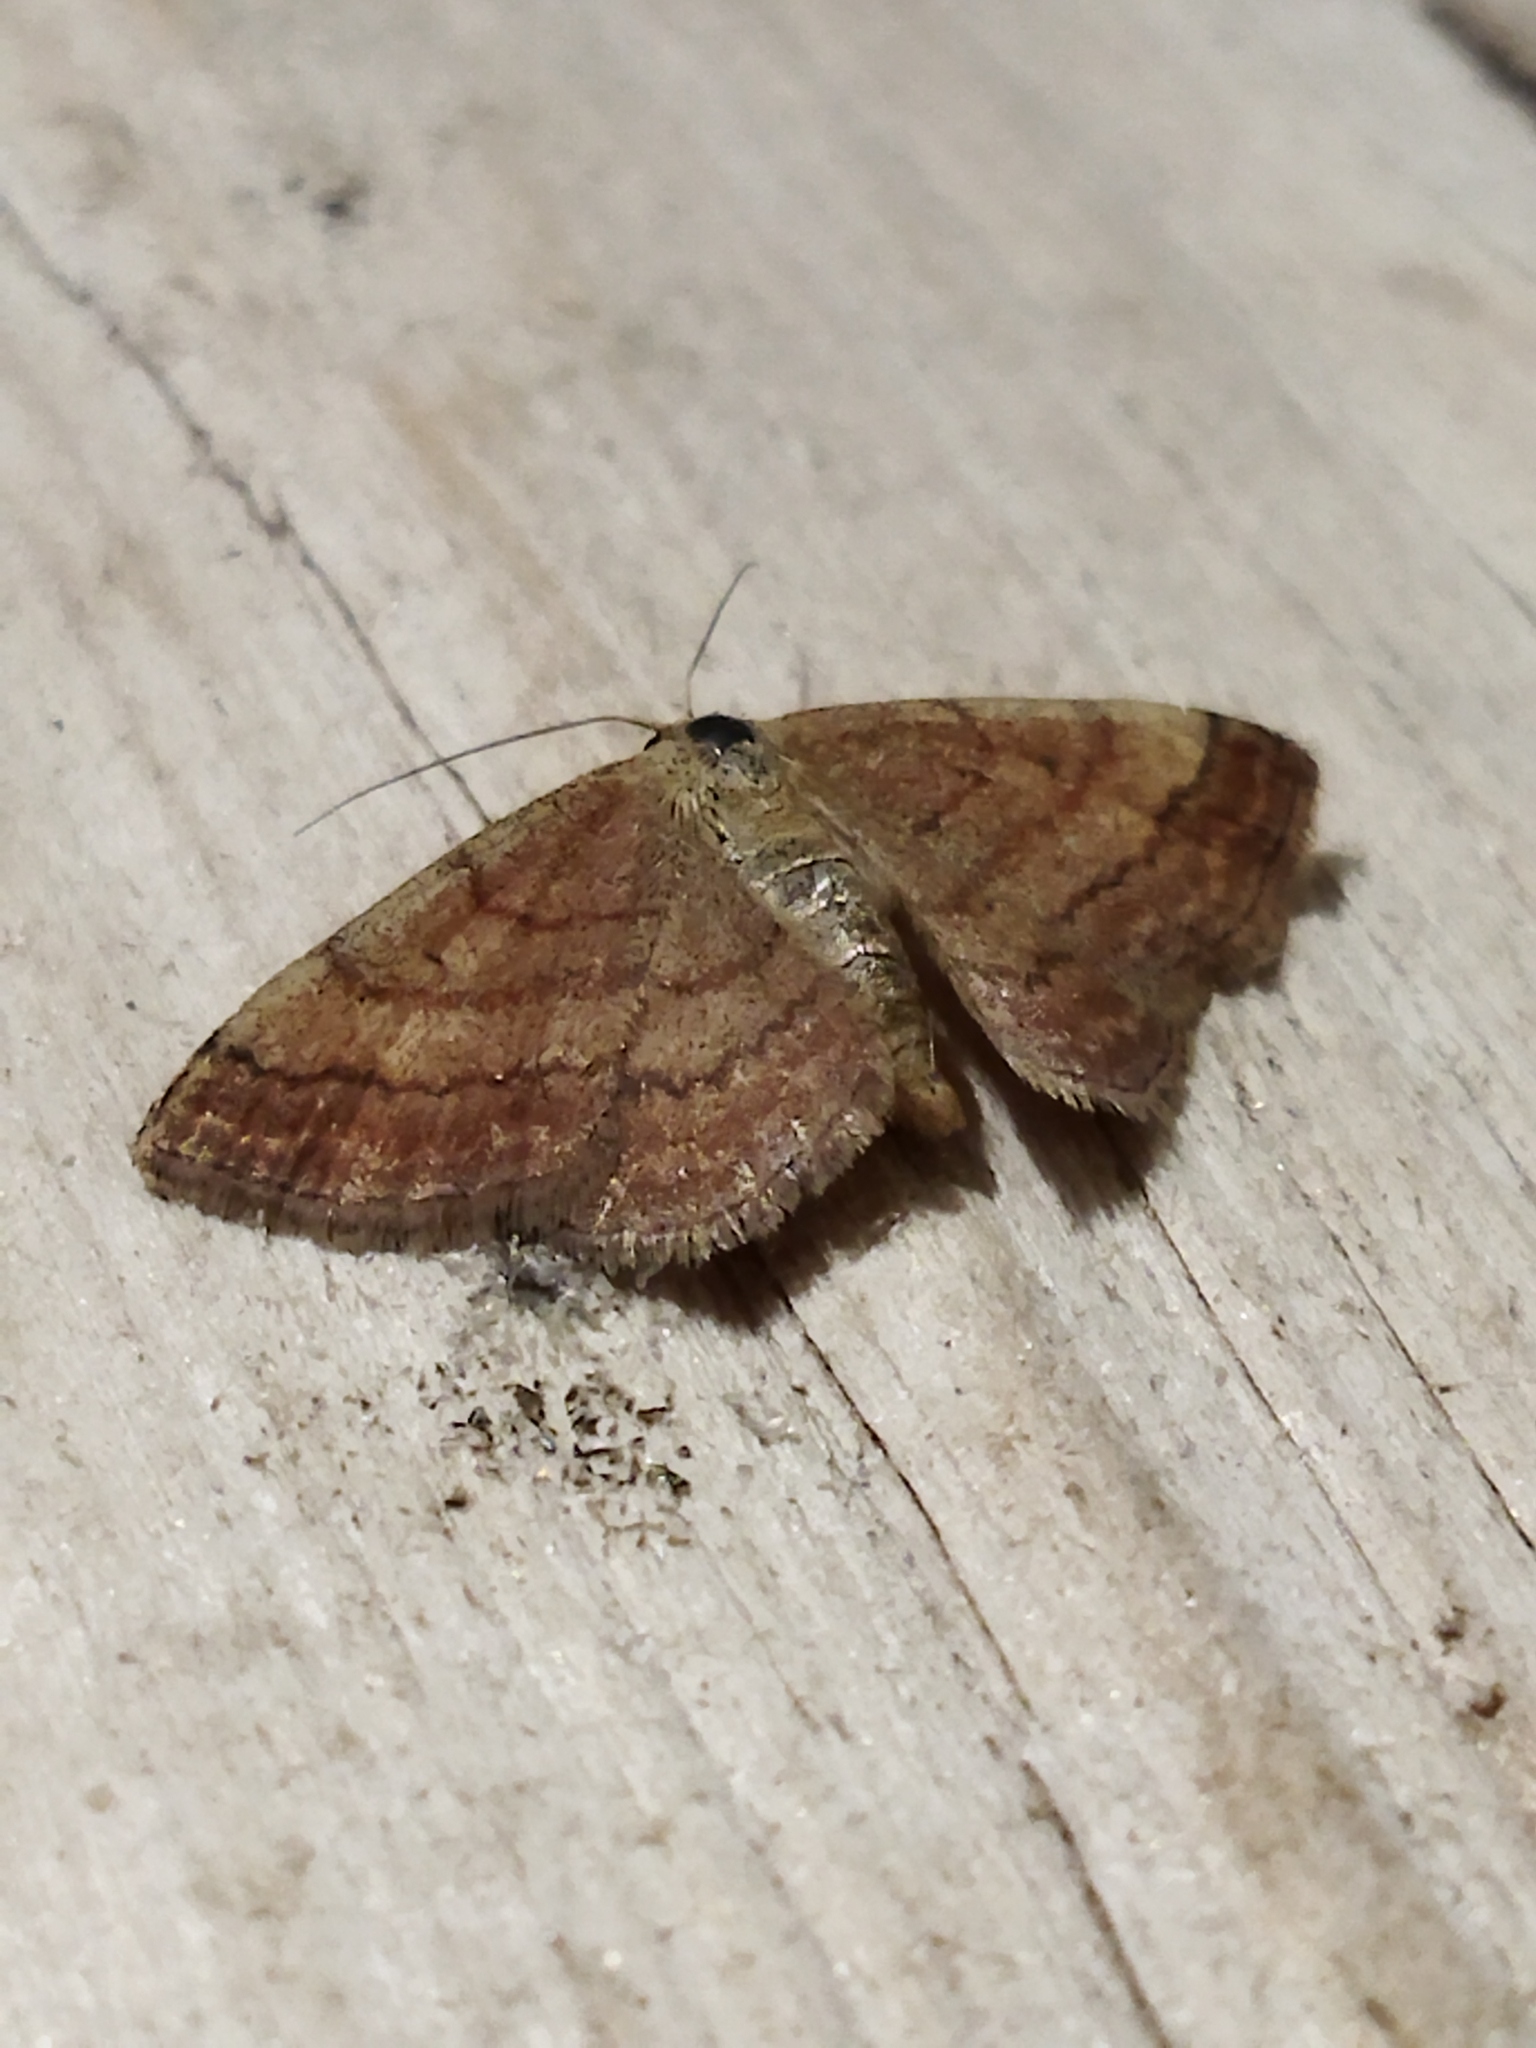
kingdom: Animalia
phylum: Arthropoda
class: Insecta
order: Lepidoptera
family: Geometridae
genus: Scopula
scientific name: Scopula rubiginata
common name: Tawny wave
